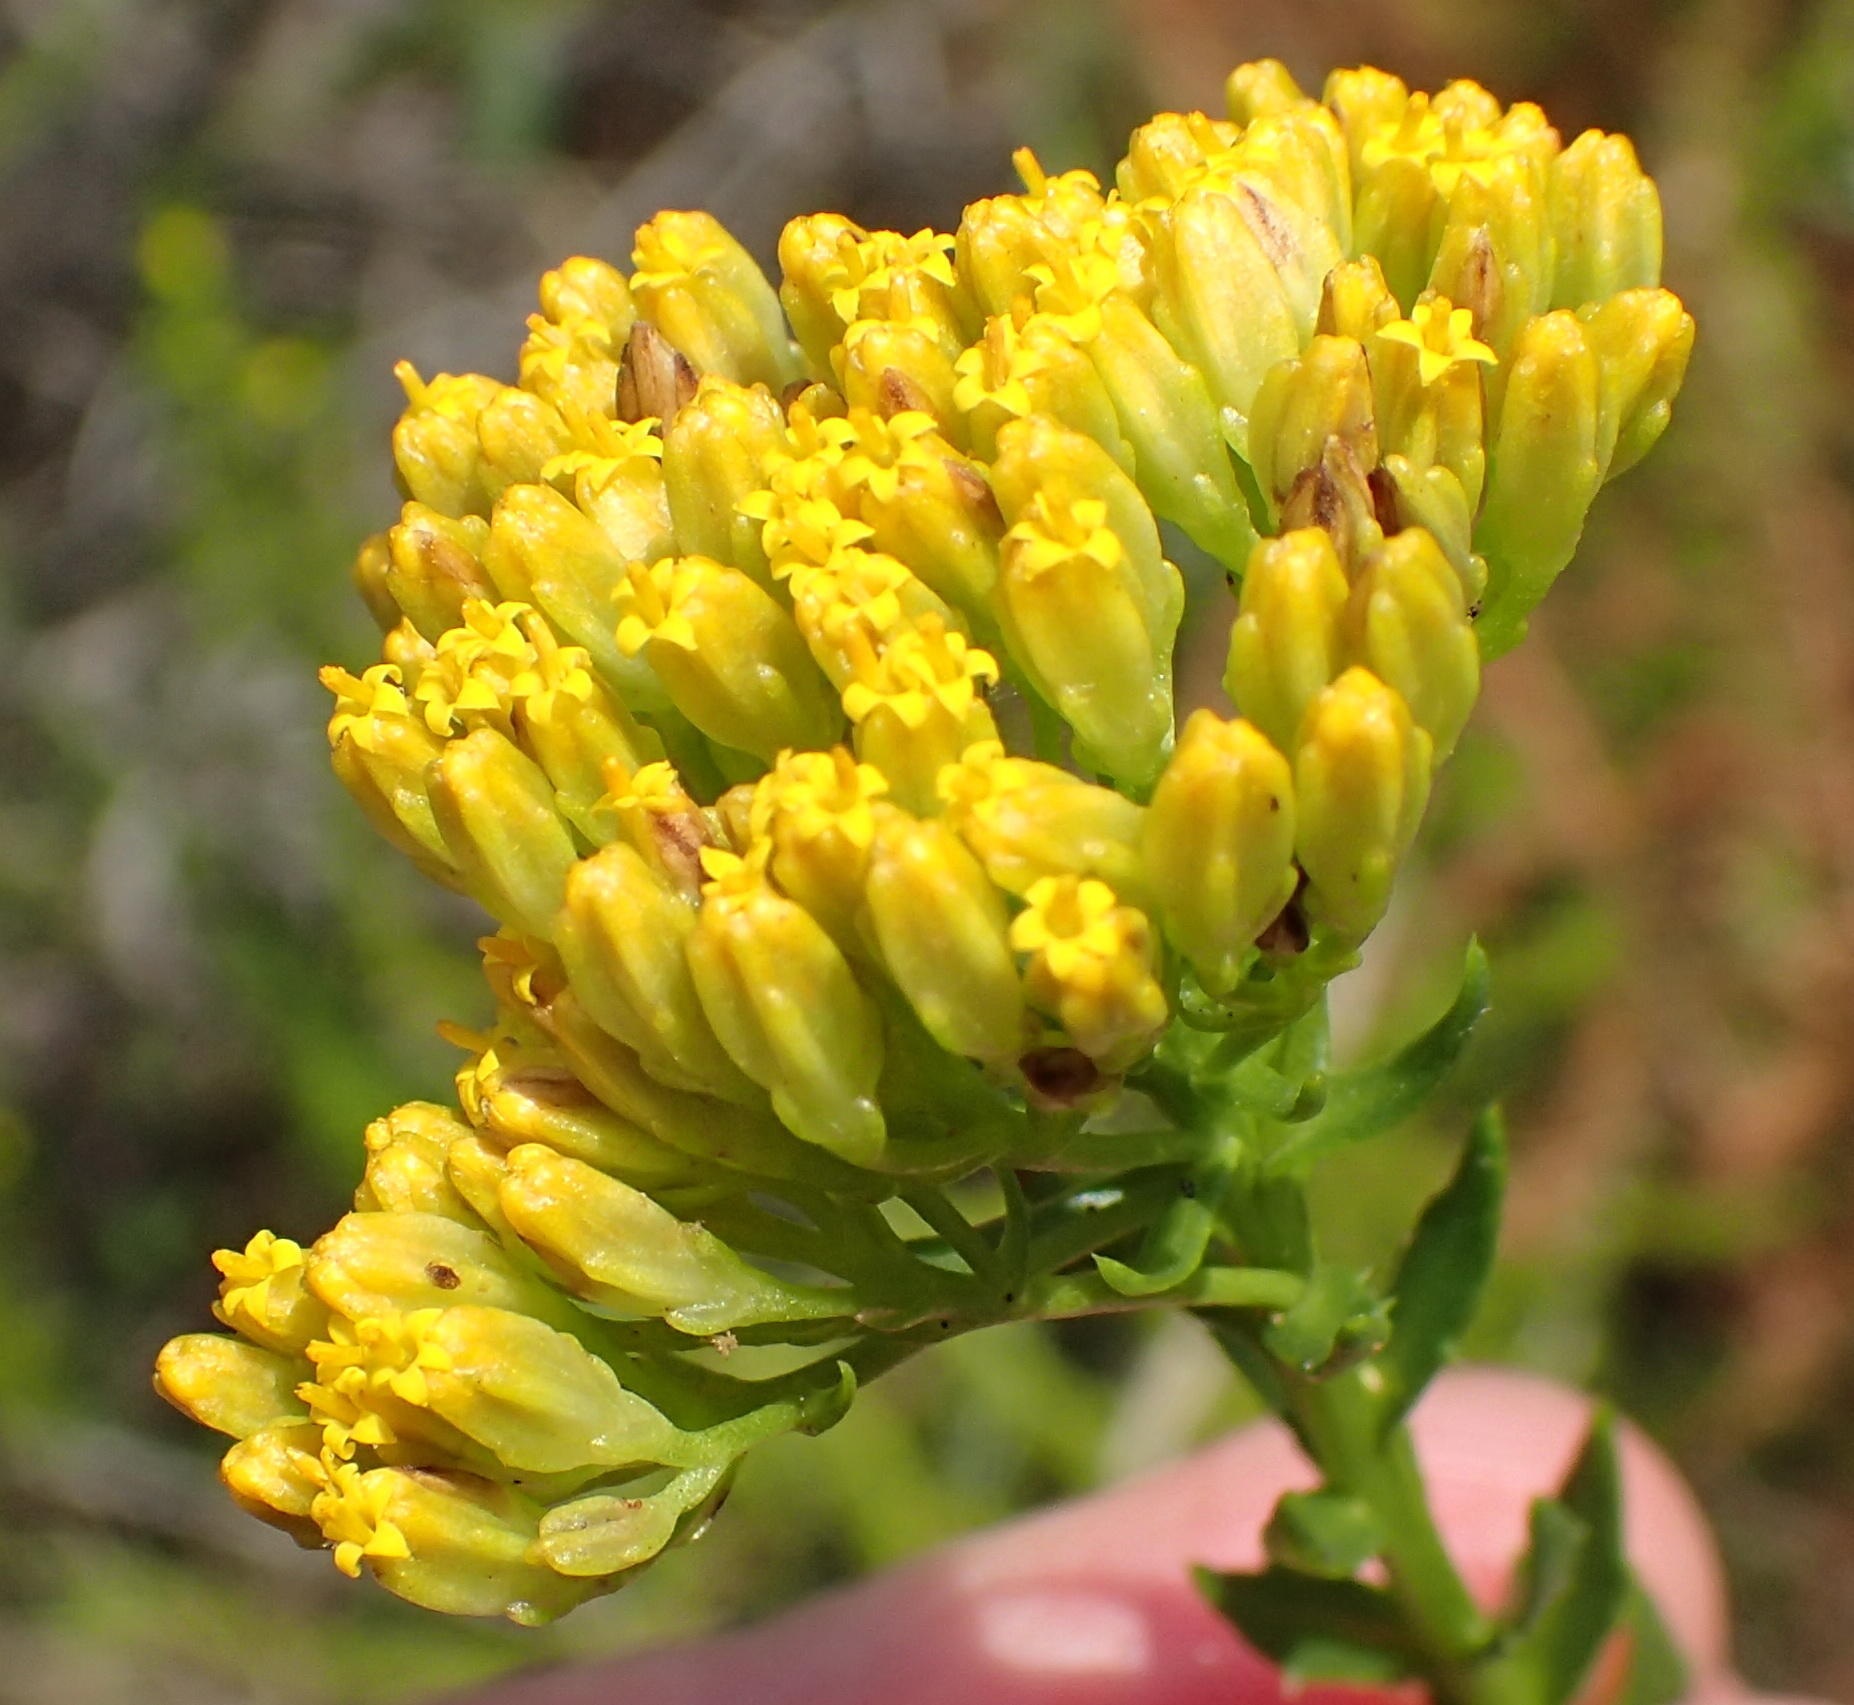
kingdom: Plantae
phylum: Tracheophyta
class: Magnoliopsida
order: Asterales
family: Asteraceae
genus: Athanasia
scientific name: Athanasia dentata
